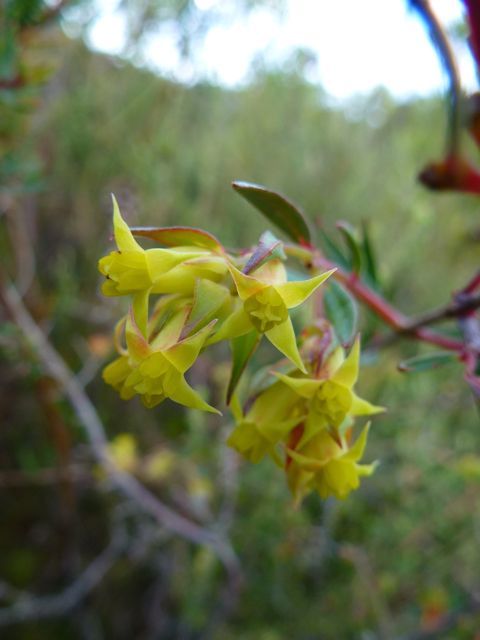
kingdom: Plantae
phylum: Tracheophyta
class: Magnoliopsida
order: Myrtales
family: Penaeaceae
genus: Penaea
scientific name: Penaea acutifolia
